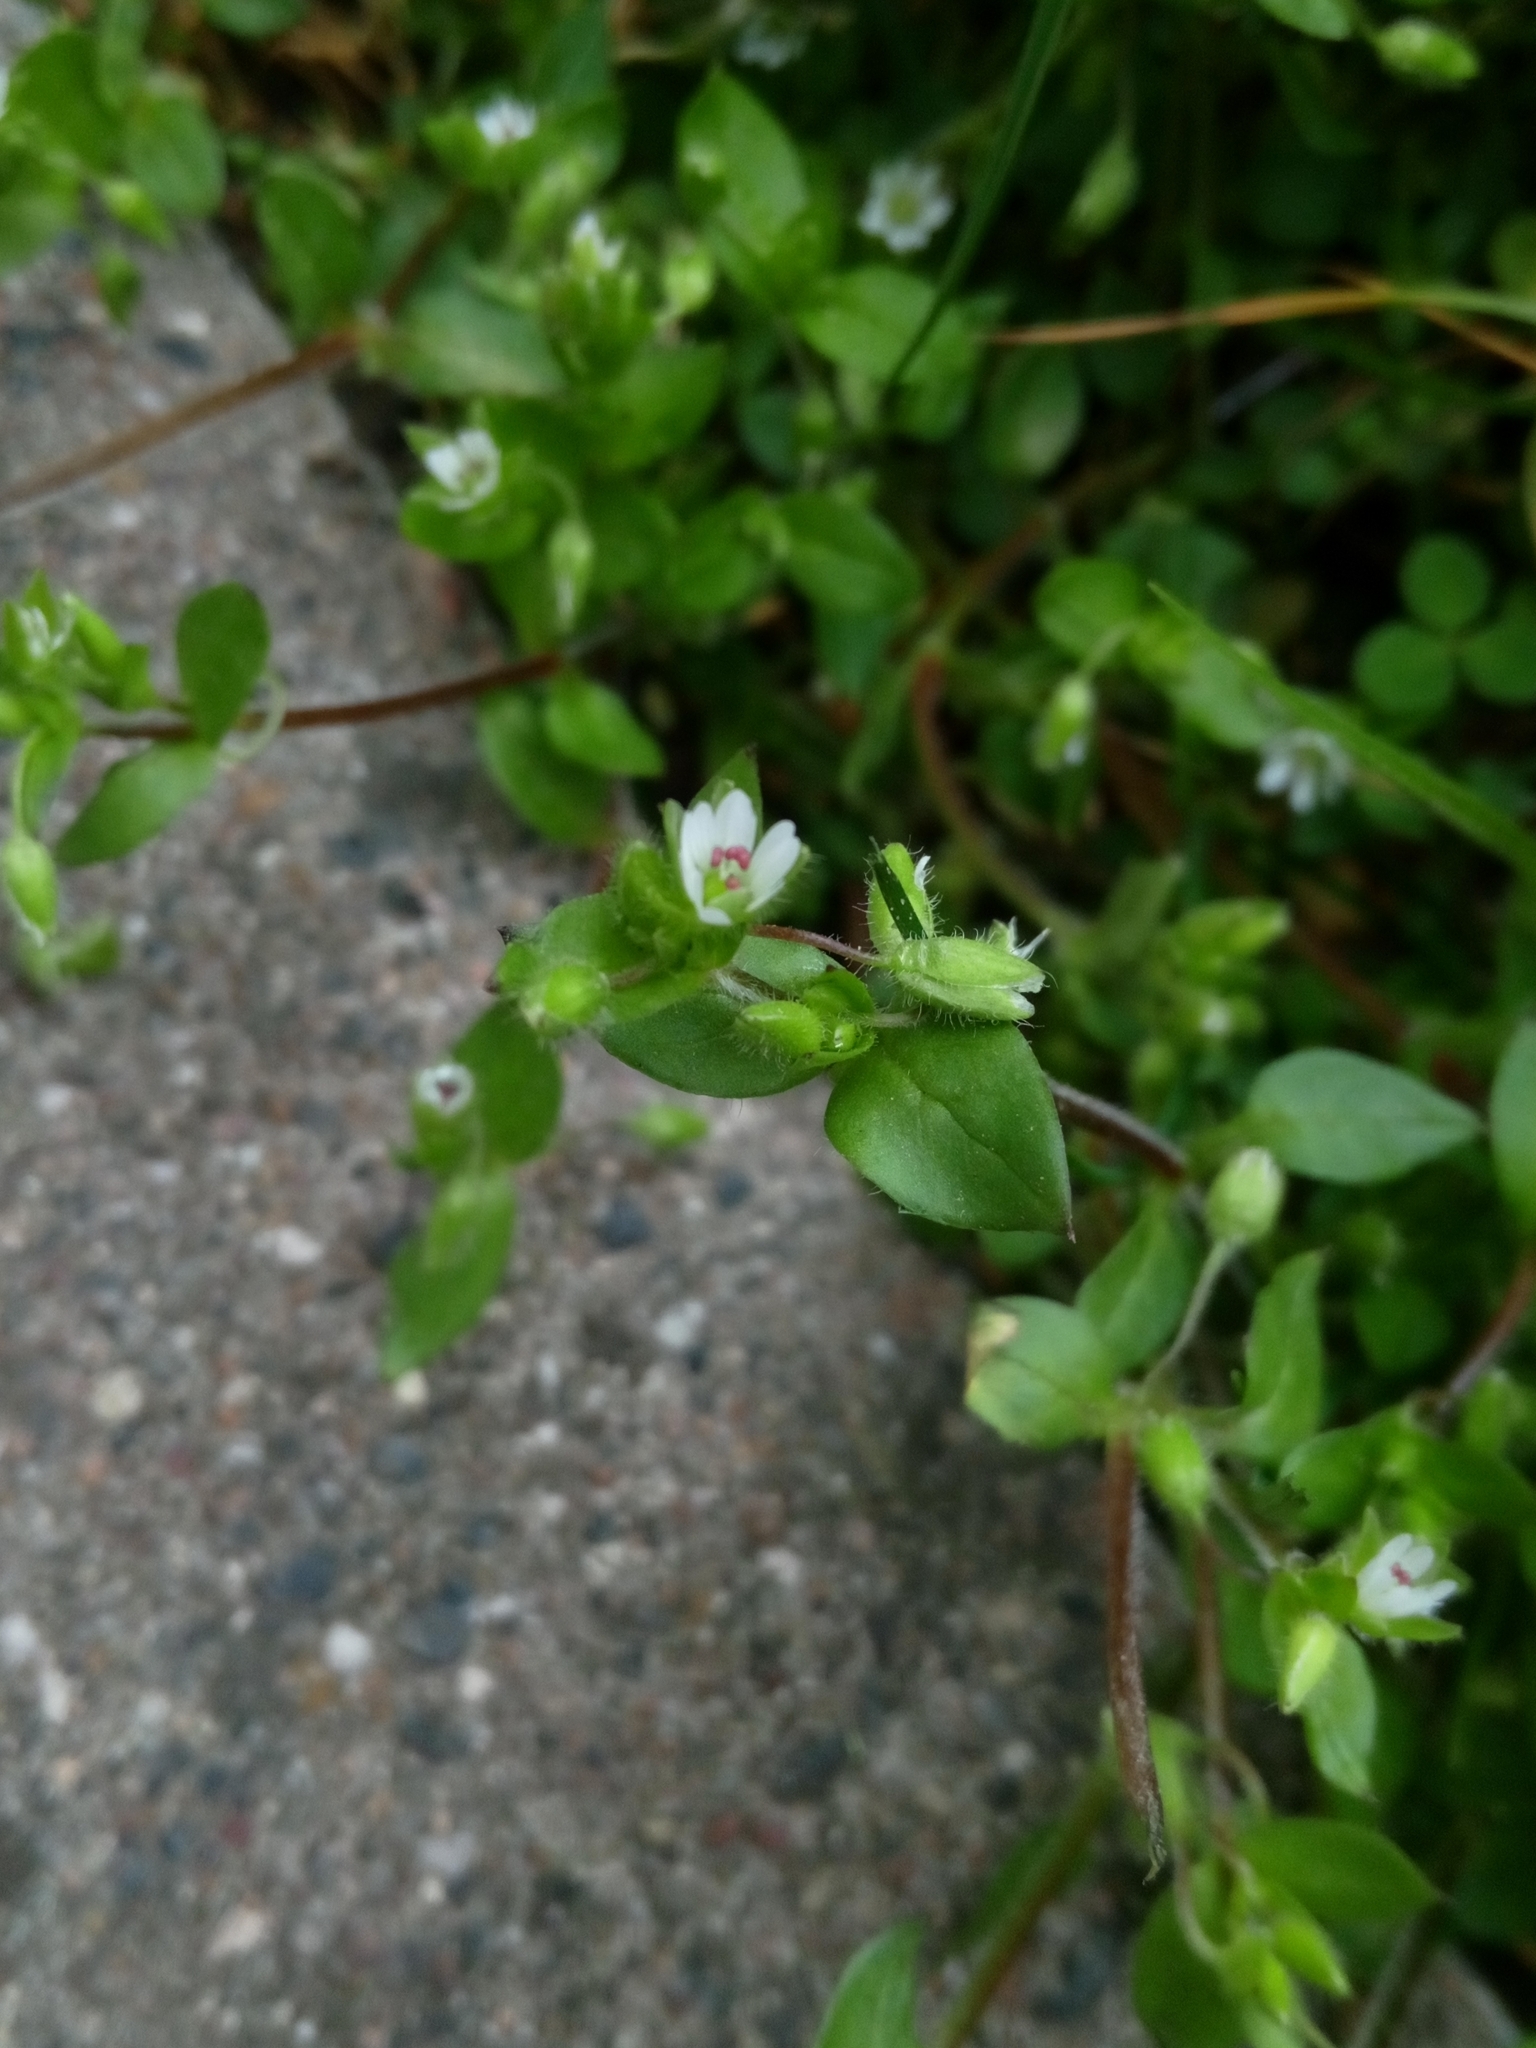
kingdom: Plantae
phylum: Tracheophyta
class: Magnoliopsida
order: Caryophyllales
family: Caryophyllaceae
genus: Stellaria
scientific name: Stellaria media
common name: Common chickweed
